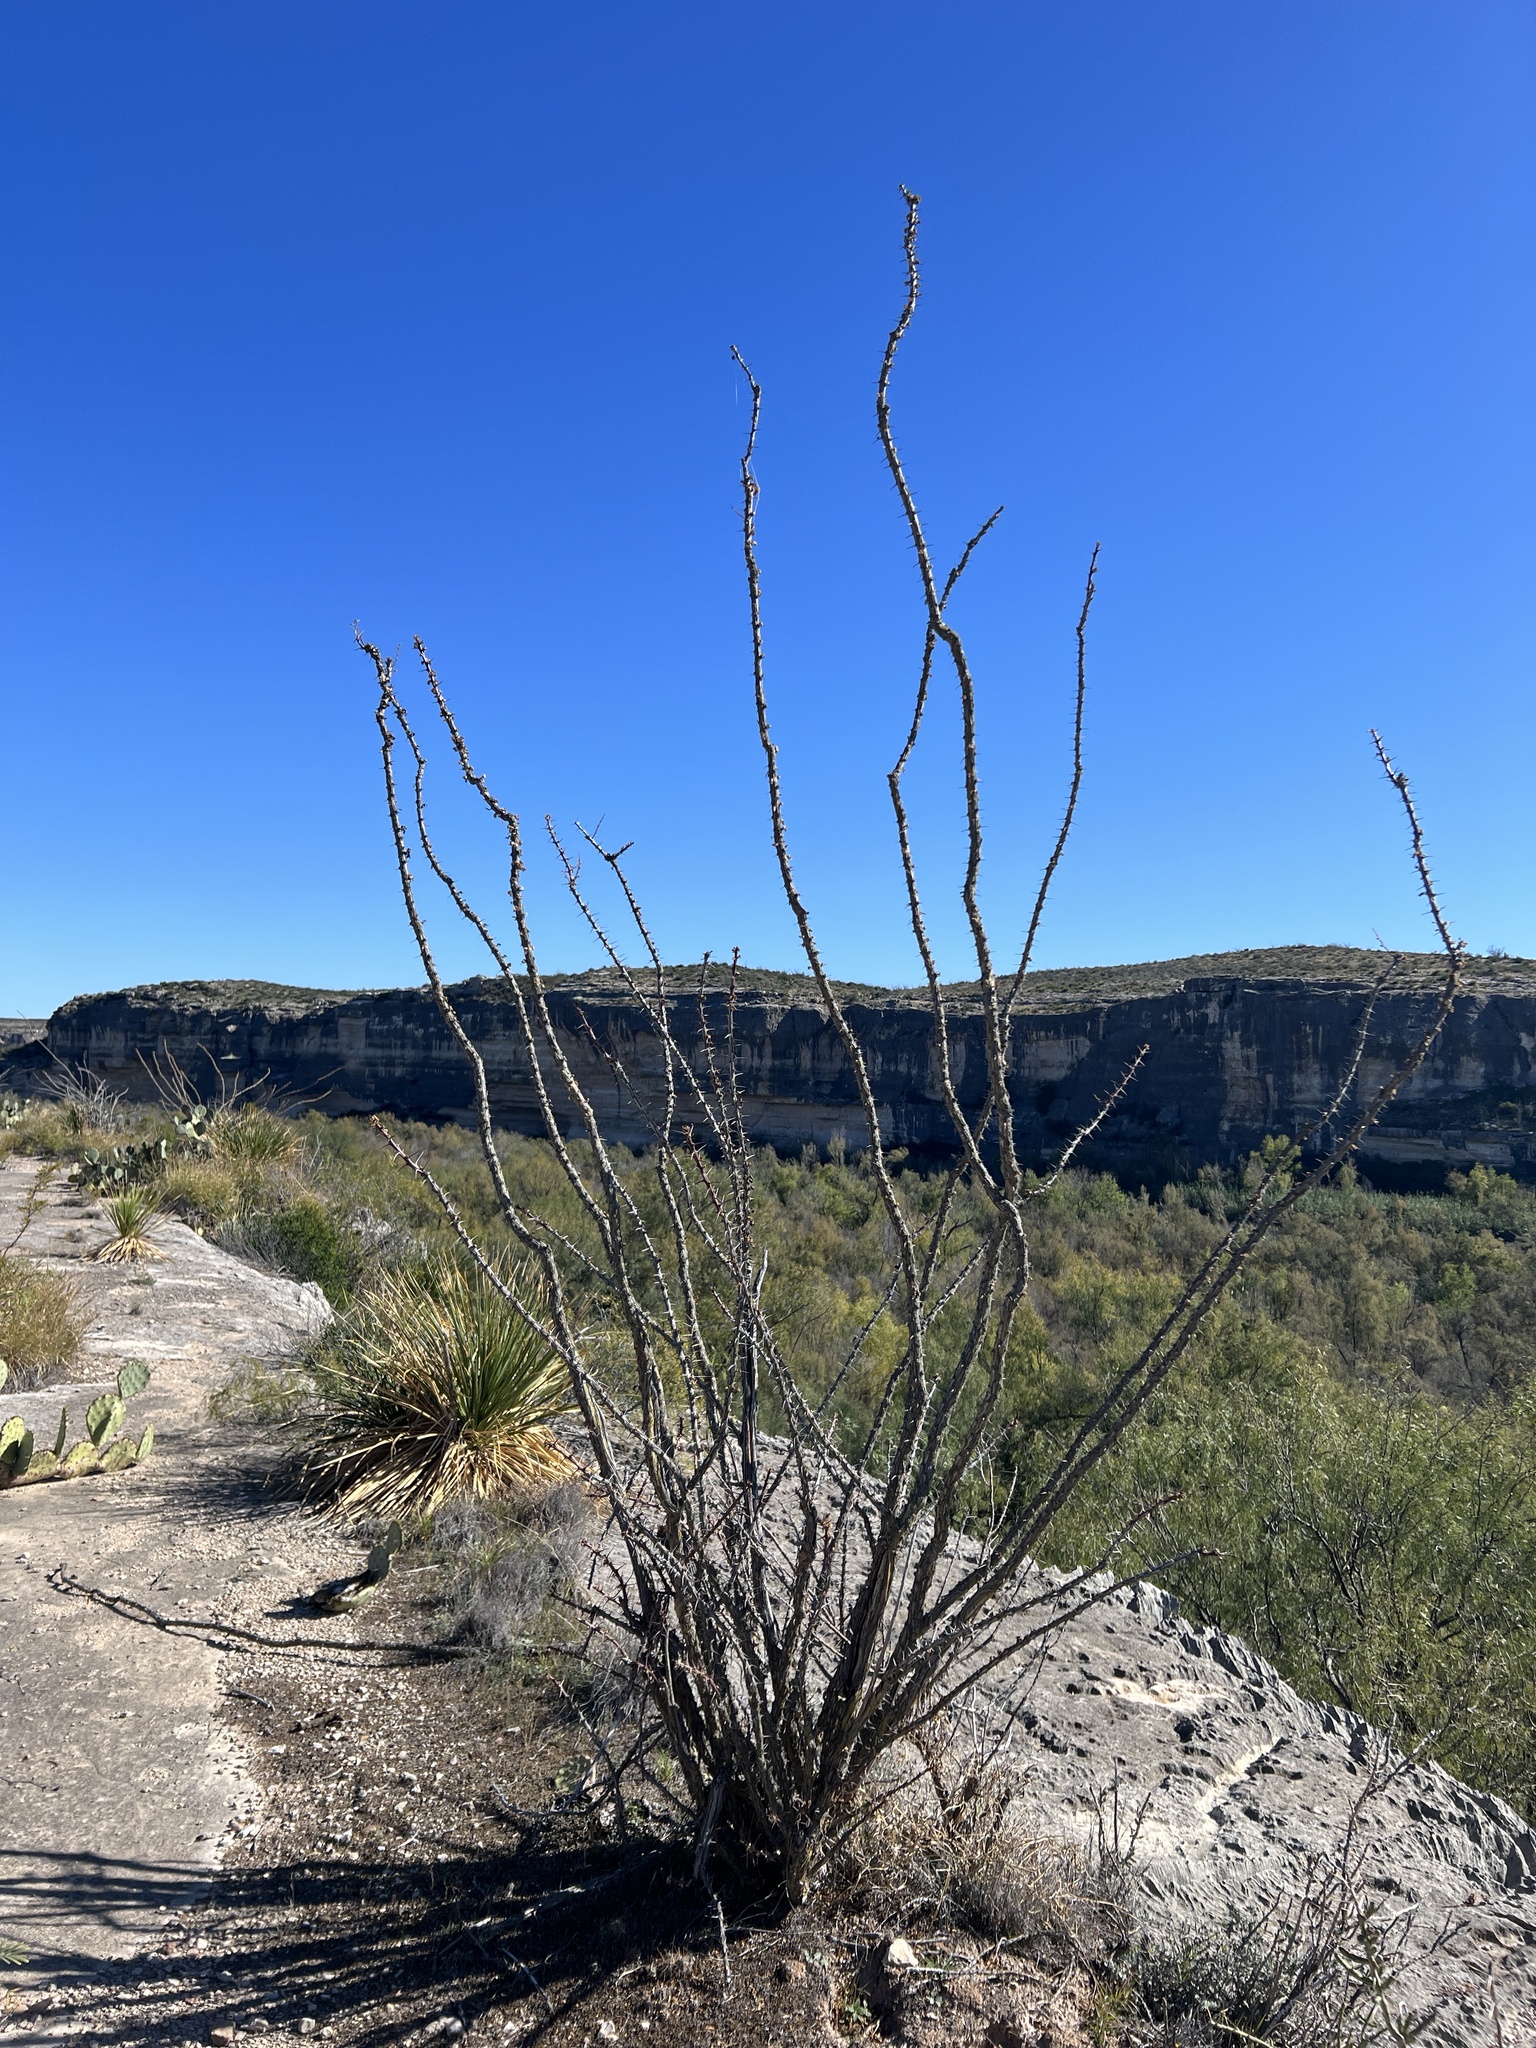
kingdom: Plantae
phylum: Tracheophyta
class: Magnoliopsida
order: Ericales
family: Fouquieriaceae
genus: Fouquieria
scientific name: Fouquieria splendens
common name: Vine-cactus
